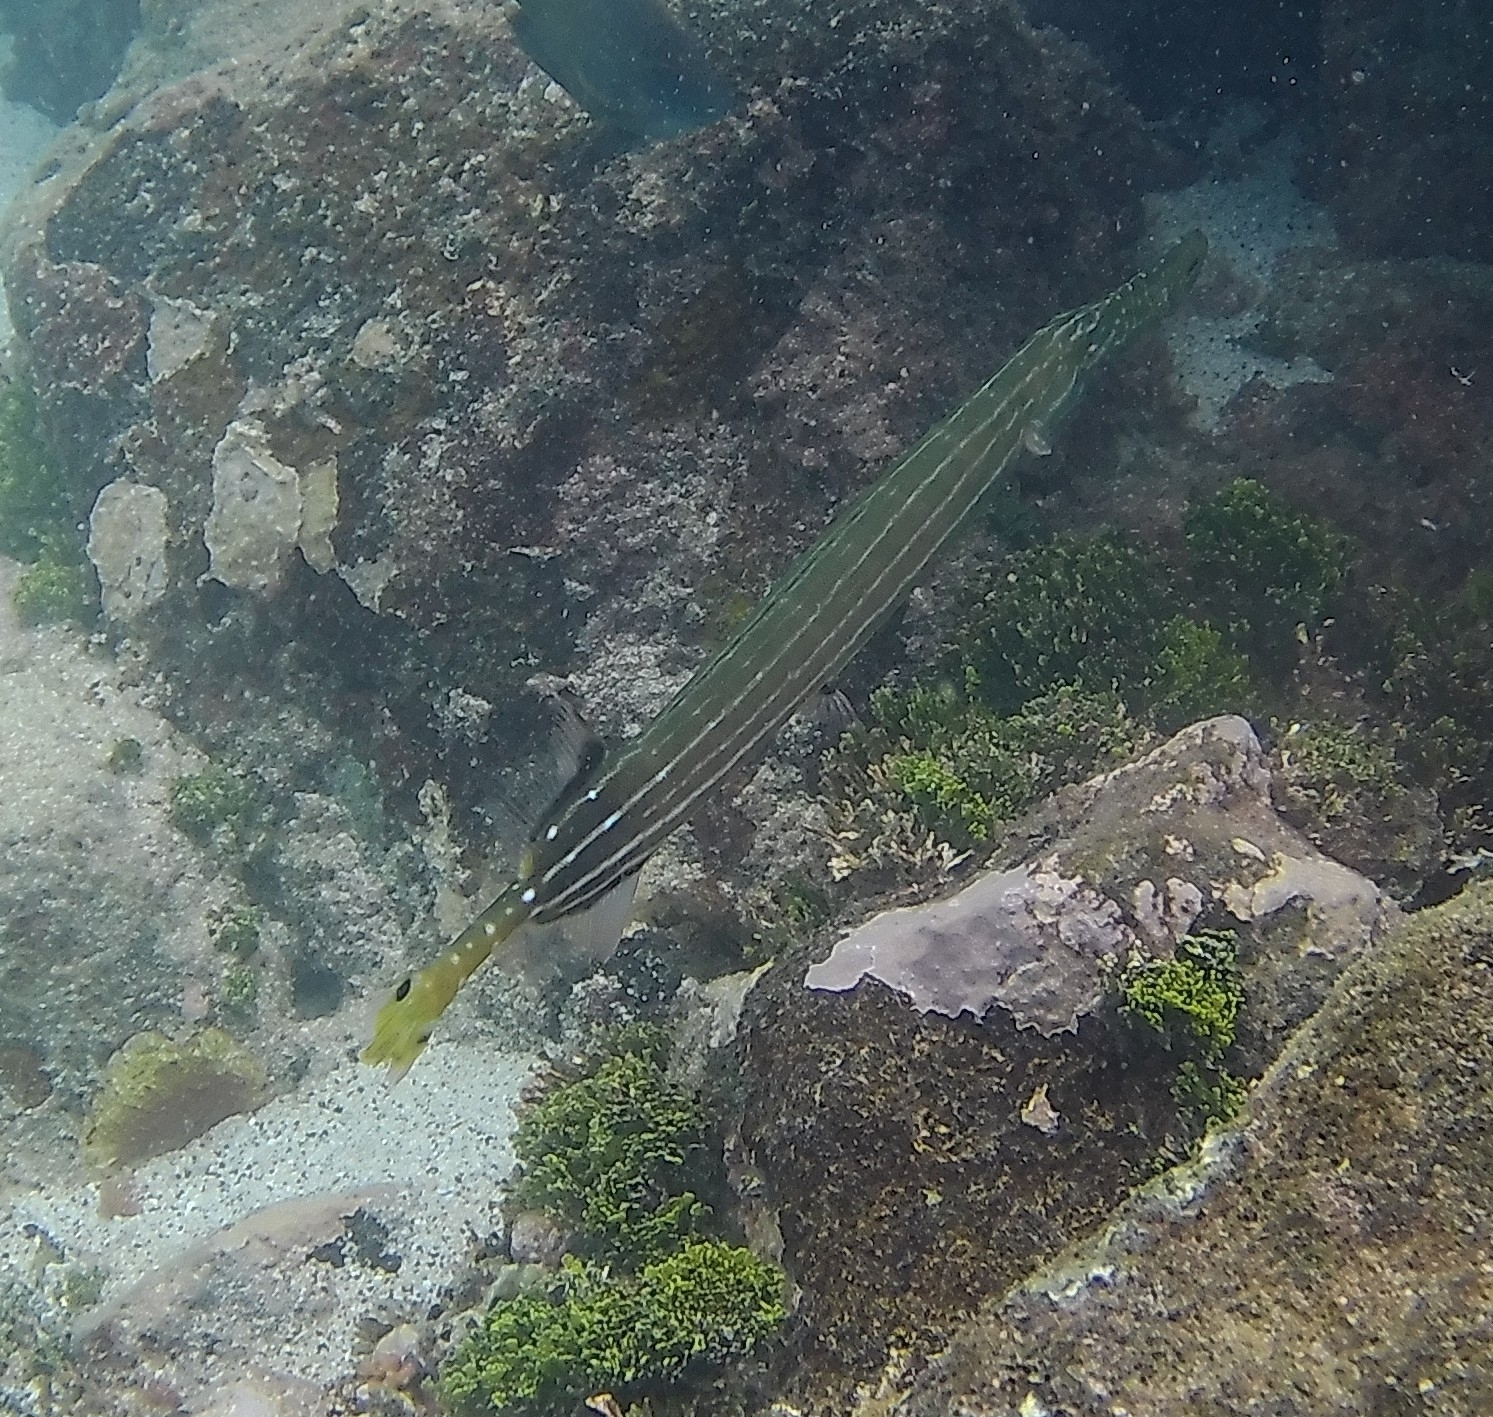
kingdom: Animalia
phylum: Chordata
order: Syngnathiformes
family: Aulostomidae
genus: Aulostomus
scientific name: Aulostomus chinensis
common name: Chinese trumpetfish
